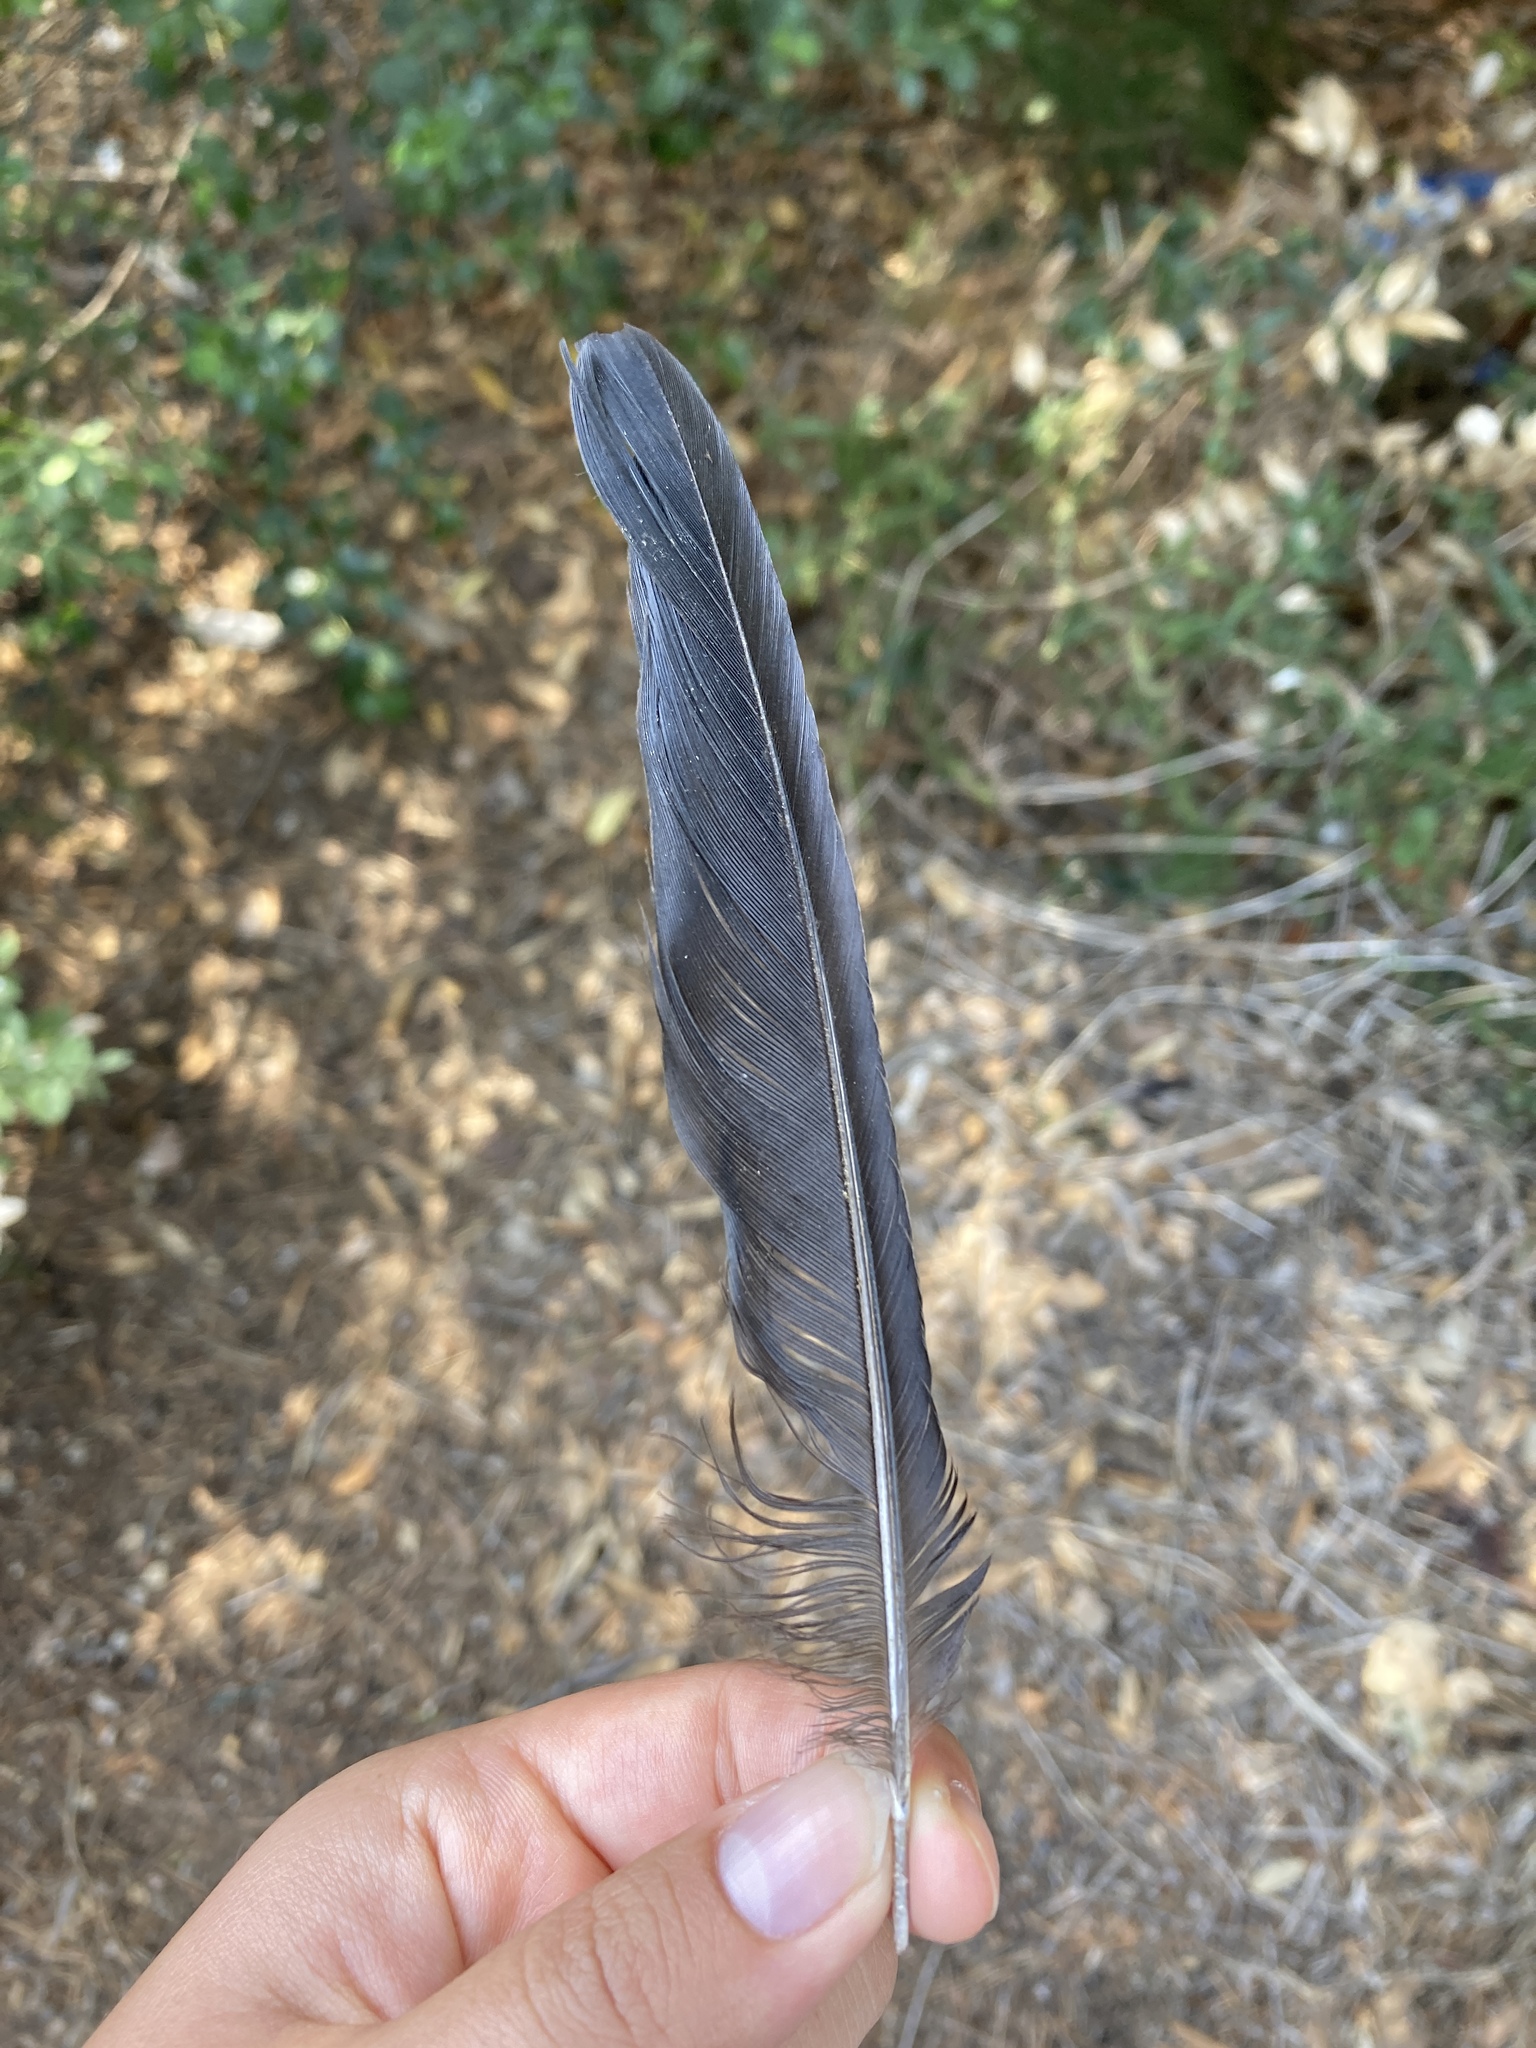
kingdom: Animalia
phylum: Chordata
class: Aves
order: Passeriformes
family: Corvidae
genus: Pica
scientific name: Pica pica
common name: Eurasian magpie
